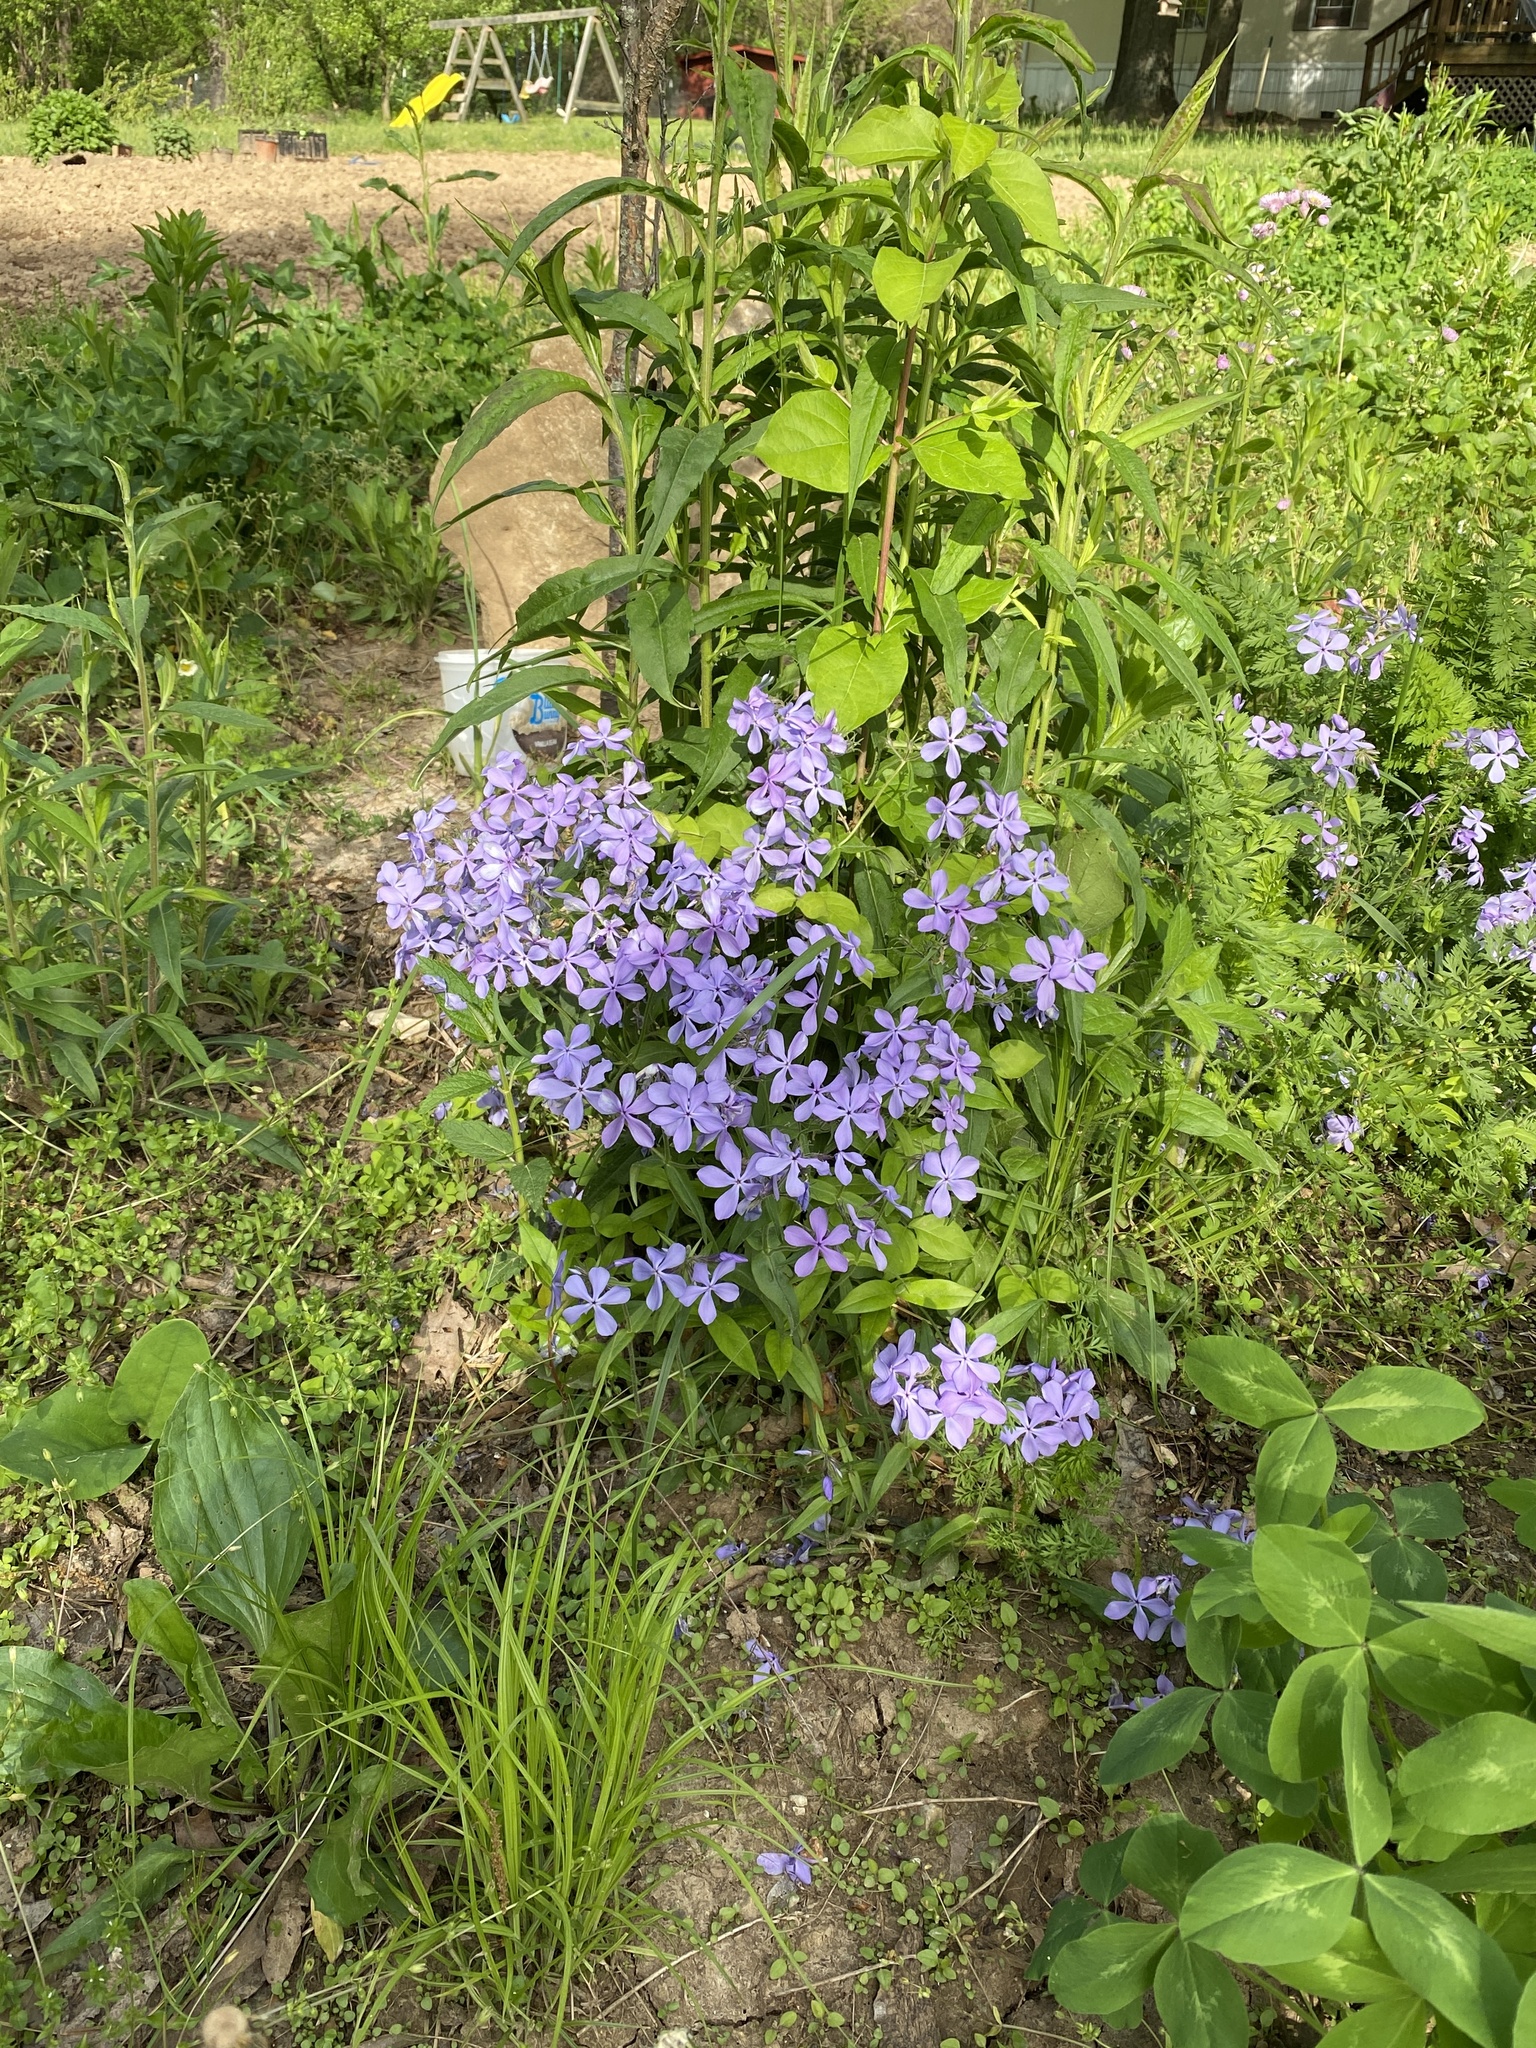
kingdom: Plantae
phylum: Tracheophyta
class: Magnoliopsida
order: Ericales
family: Polemoniaceae
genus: Phlox
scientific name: Phlox divaricata
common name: Blue phlox
